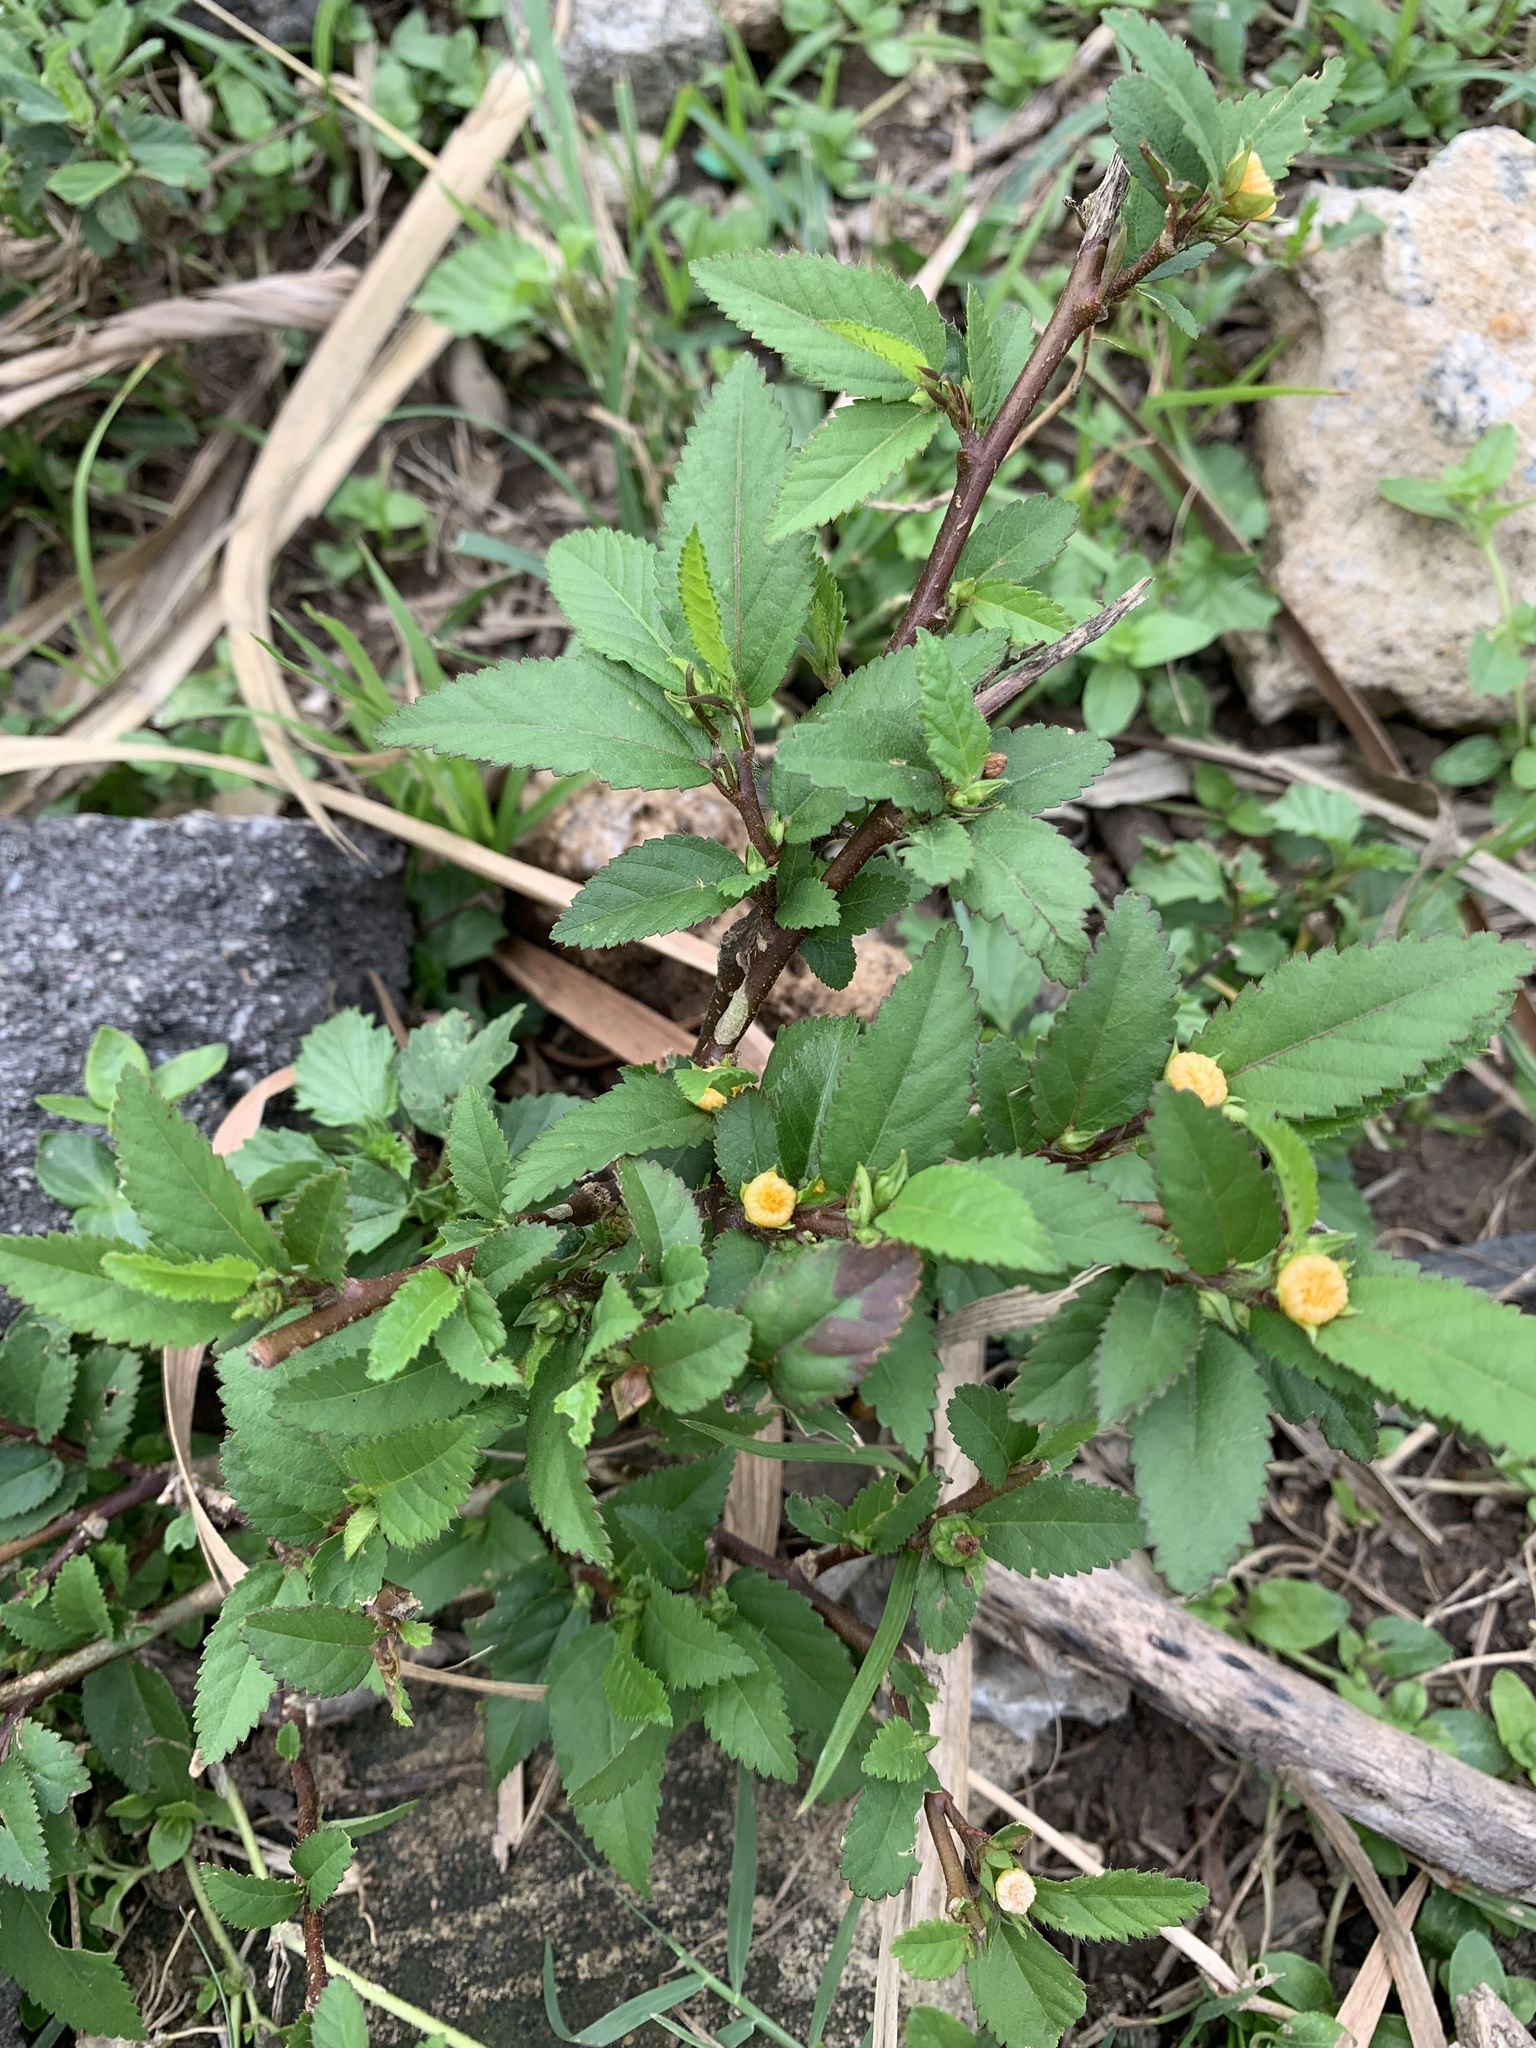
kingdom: Plantae
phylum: Tracheophyta
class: Magnoliopsida
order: Malvales
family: Malvaceae
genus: Sida
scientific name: Sida rhombifolia
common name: Queensland-hemp
